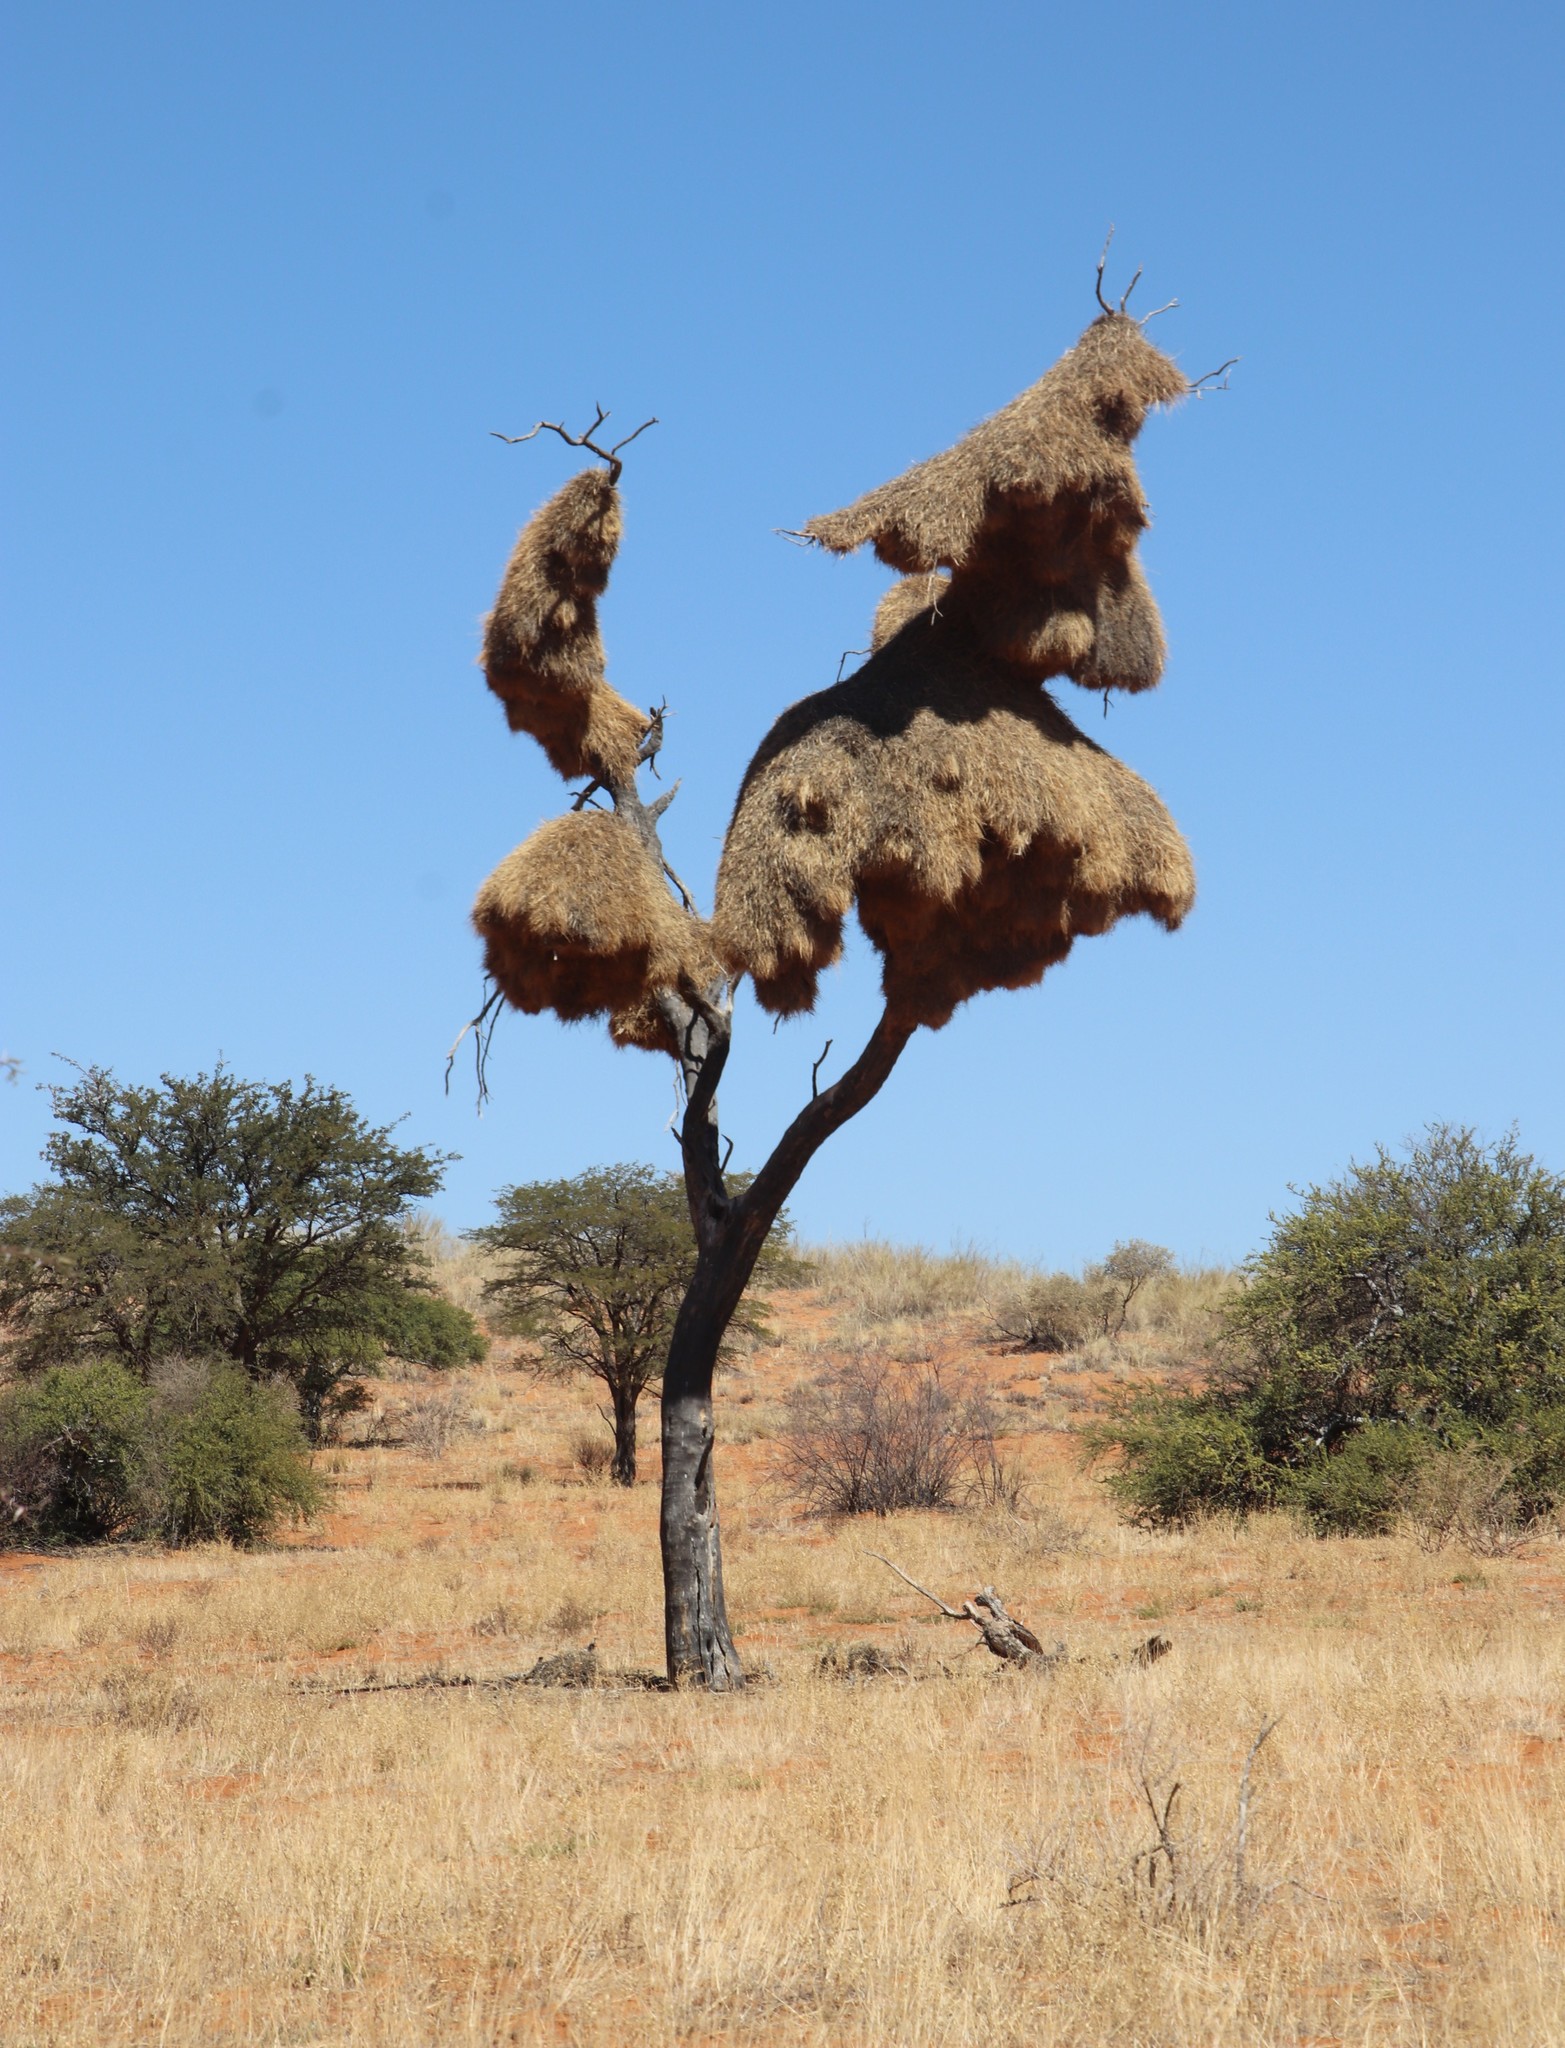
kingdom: Animalia
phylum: Chordata
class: Aves
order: Passeriformes
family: Passeridae
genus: Philetairus
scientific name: Philetairus socius
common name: Sociable weaver
